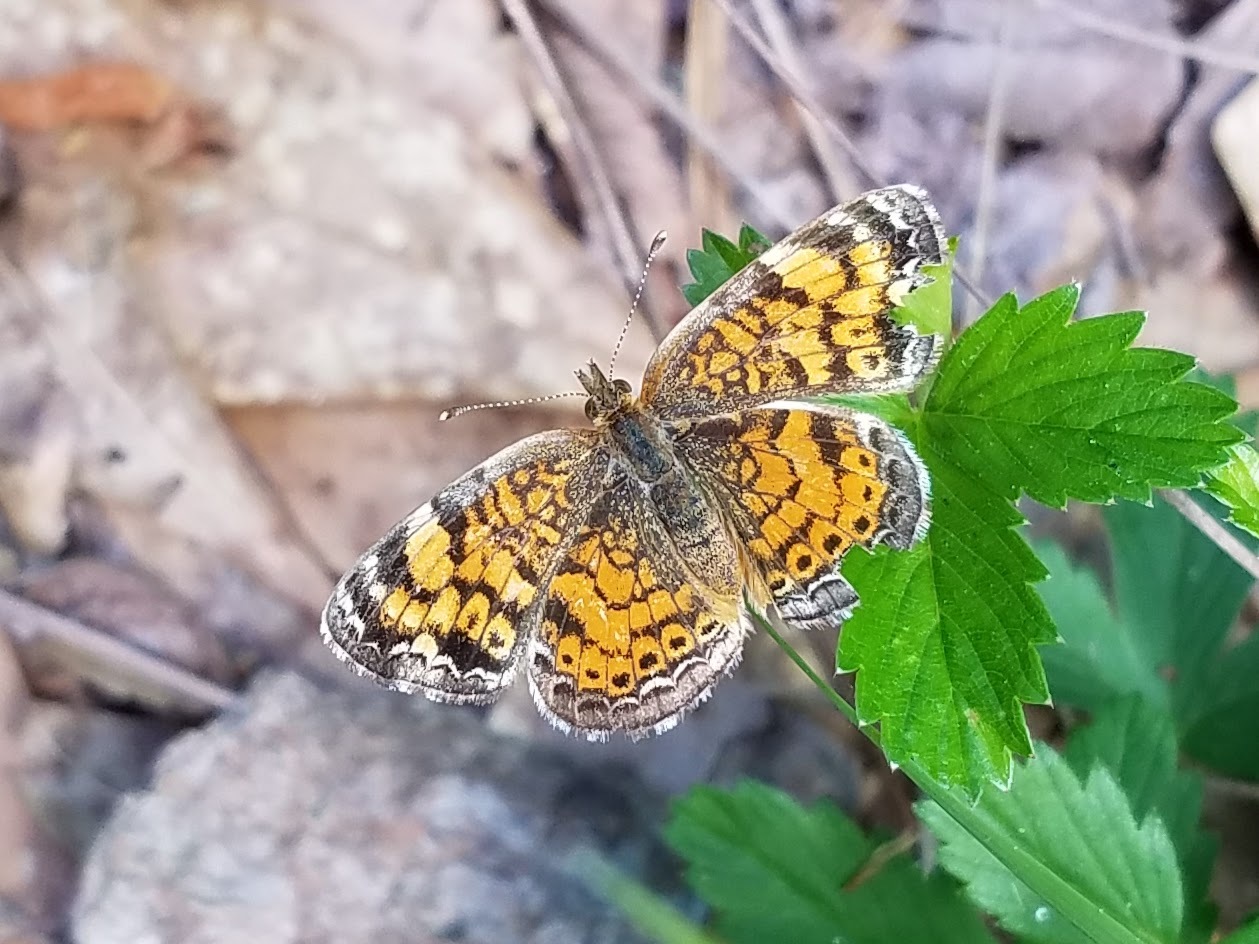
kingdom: Animalia
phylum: Arthropoda
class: Insecta
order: Lepidoptera
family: Nymphalidae
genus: Phyciodes
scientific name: Phyciodes tharos
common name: Pearl crescent
